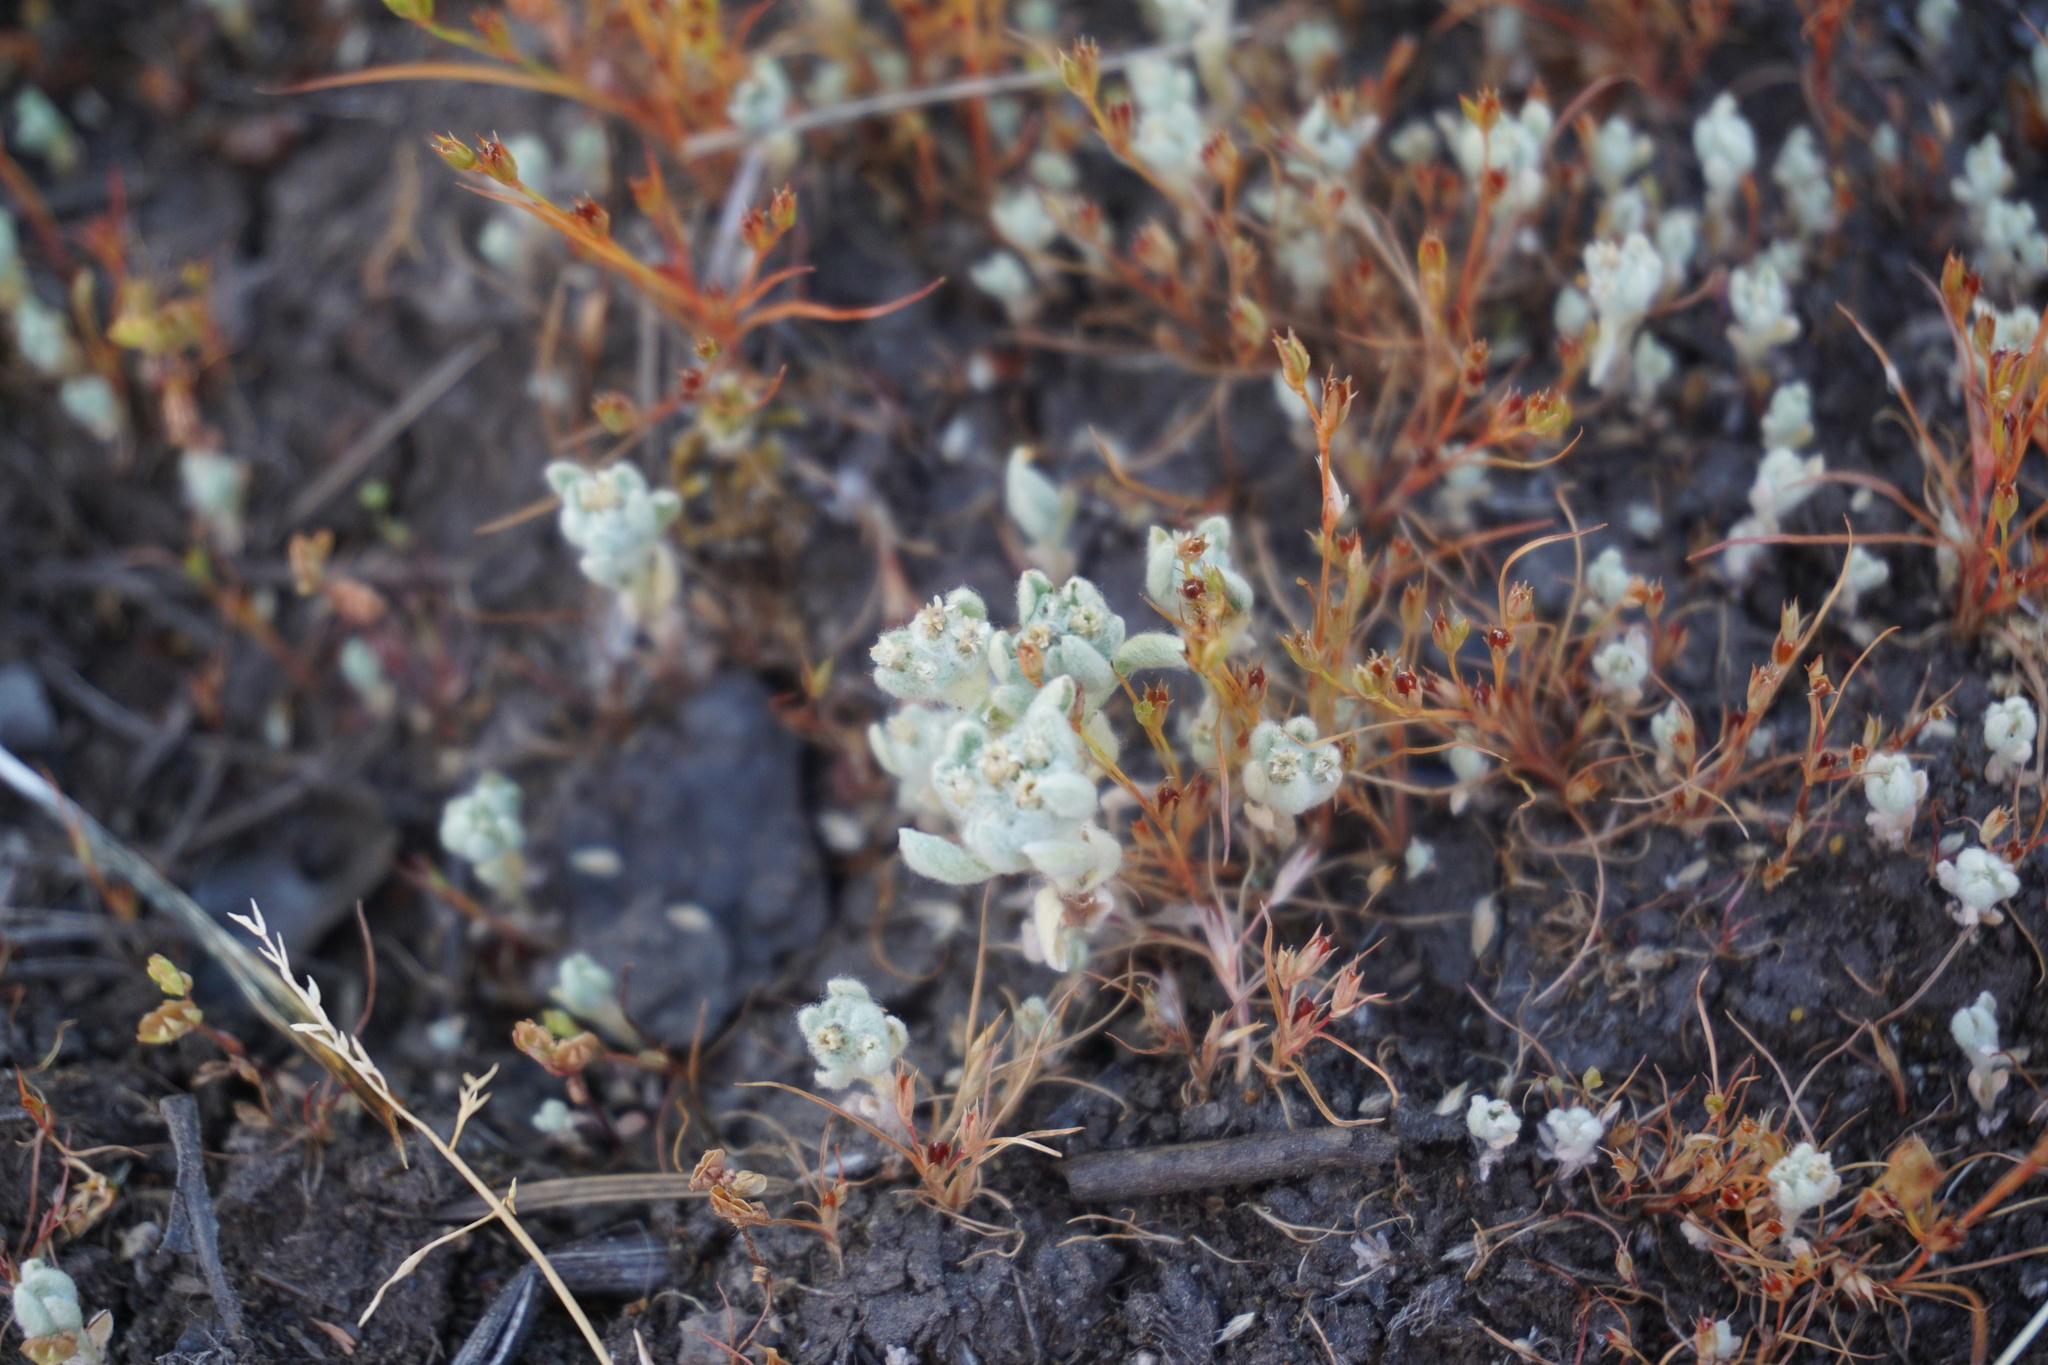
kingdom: Plantae
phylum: Tracheophyta
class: Magnoliopsida
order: Asterales
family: Asteraceae
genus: Gnaphalium
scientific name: Gnaphalium palustre
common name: Western marsh cudweed
